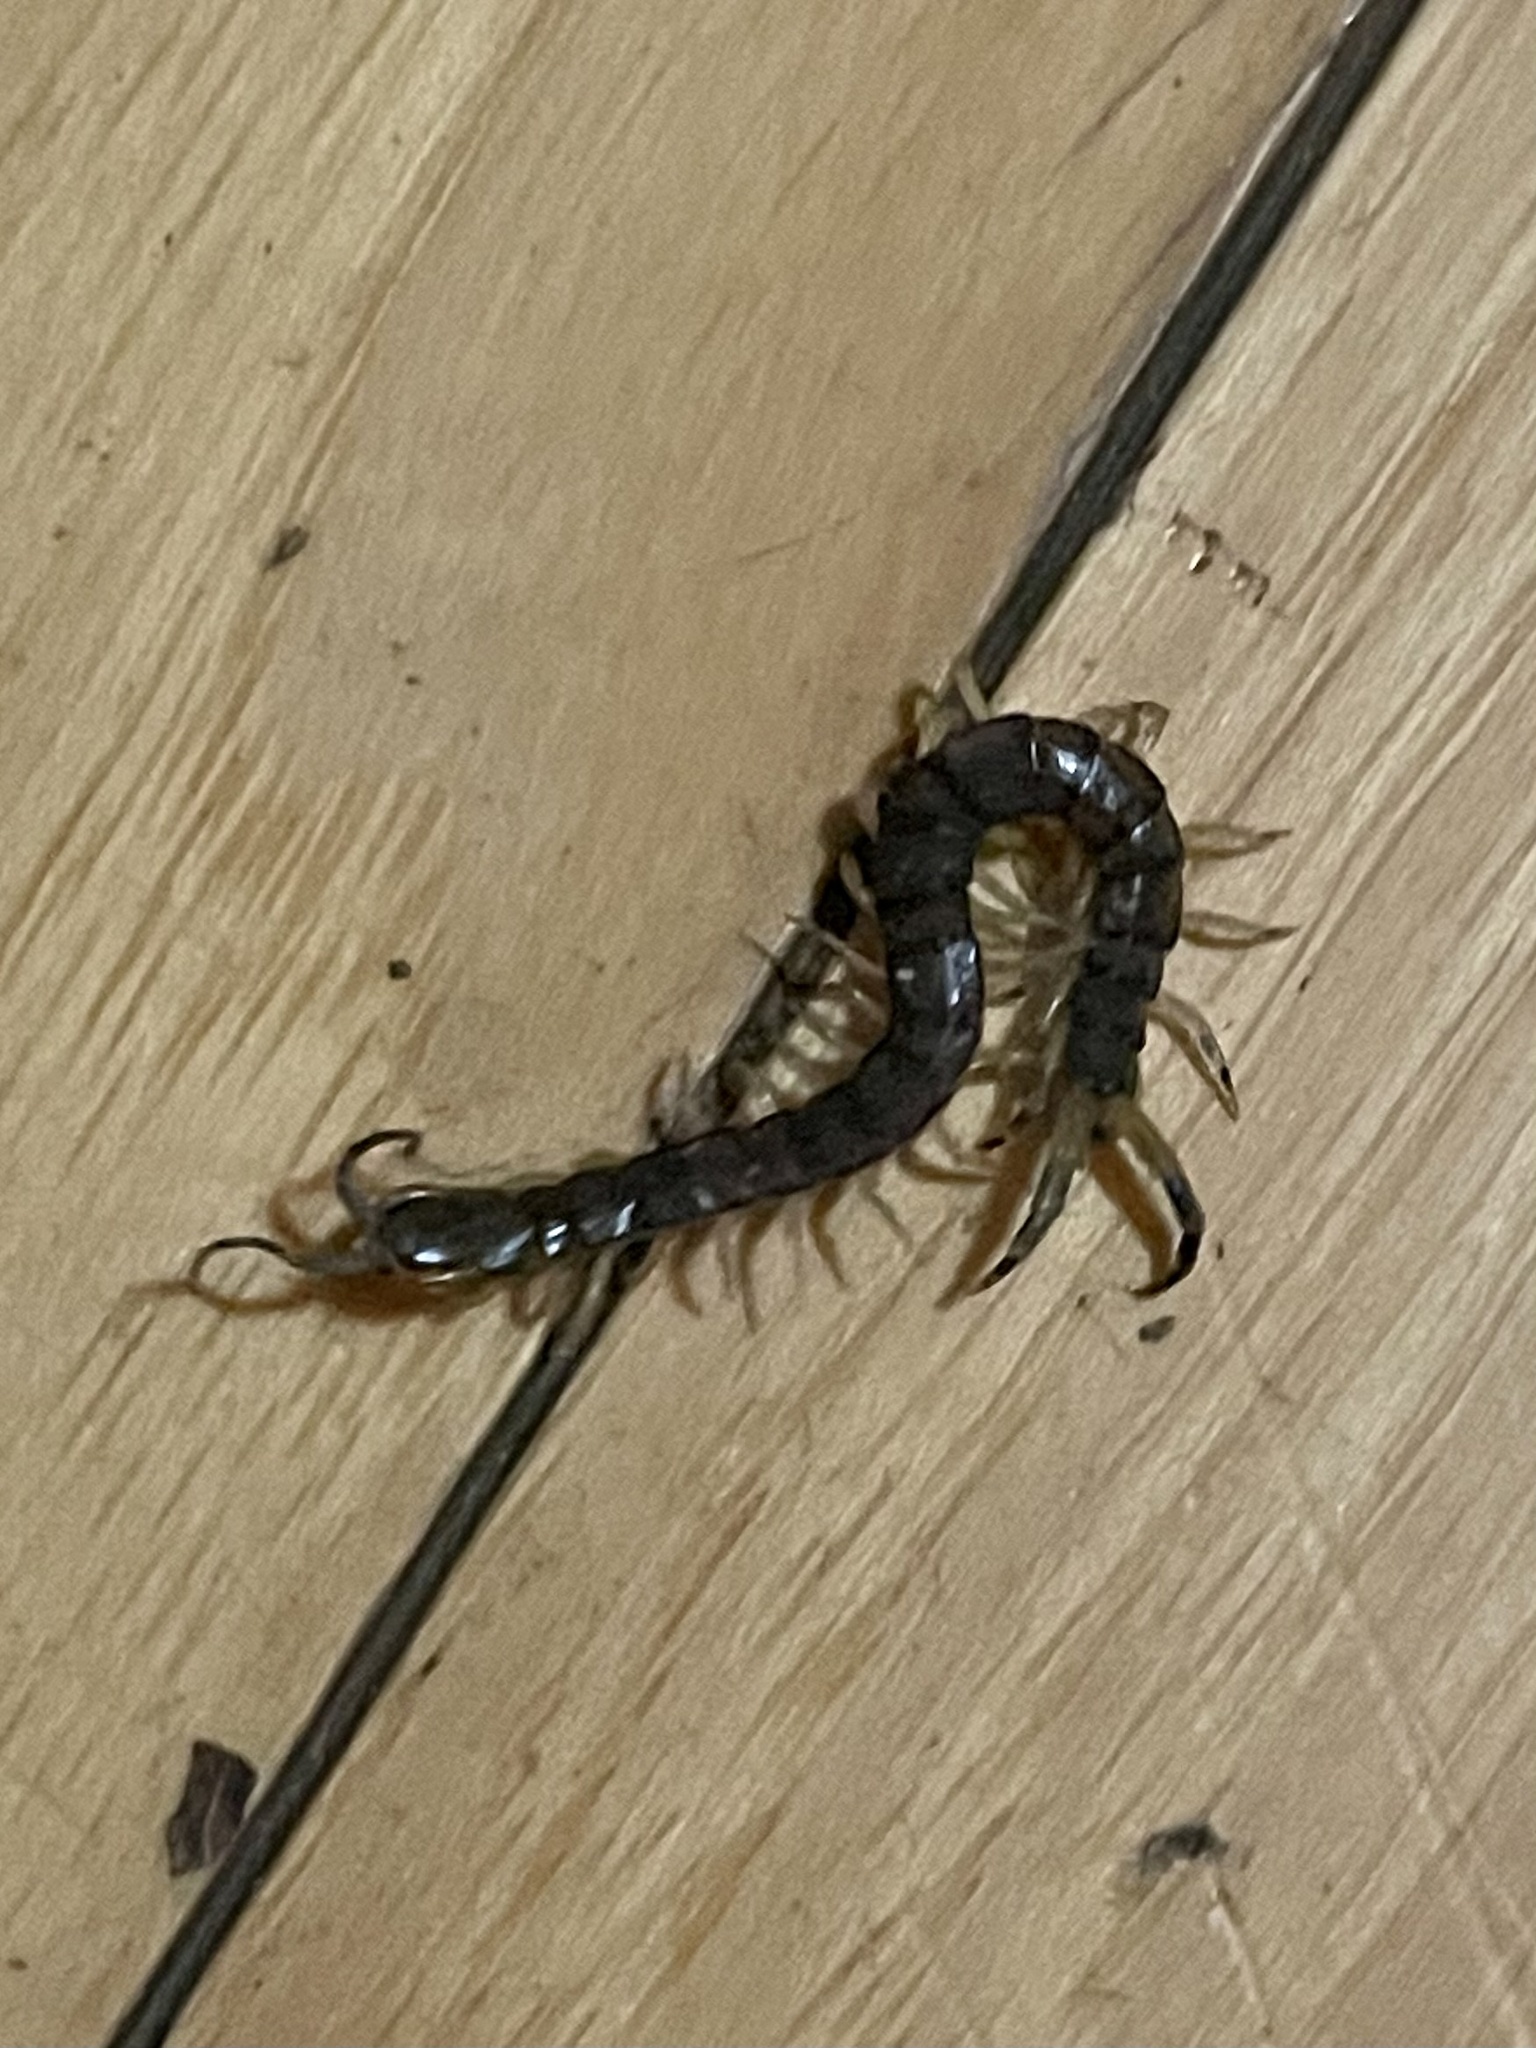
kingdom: Animalia
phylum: Arthropoda
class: Chilopoda
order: Scolopendromorpha
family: Scolopendridae
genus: Hemiscolopendra
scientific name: Hemiscolopendra marginata
